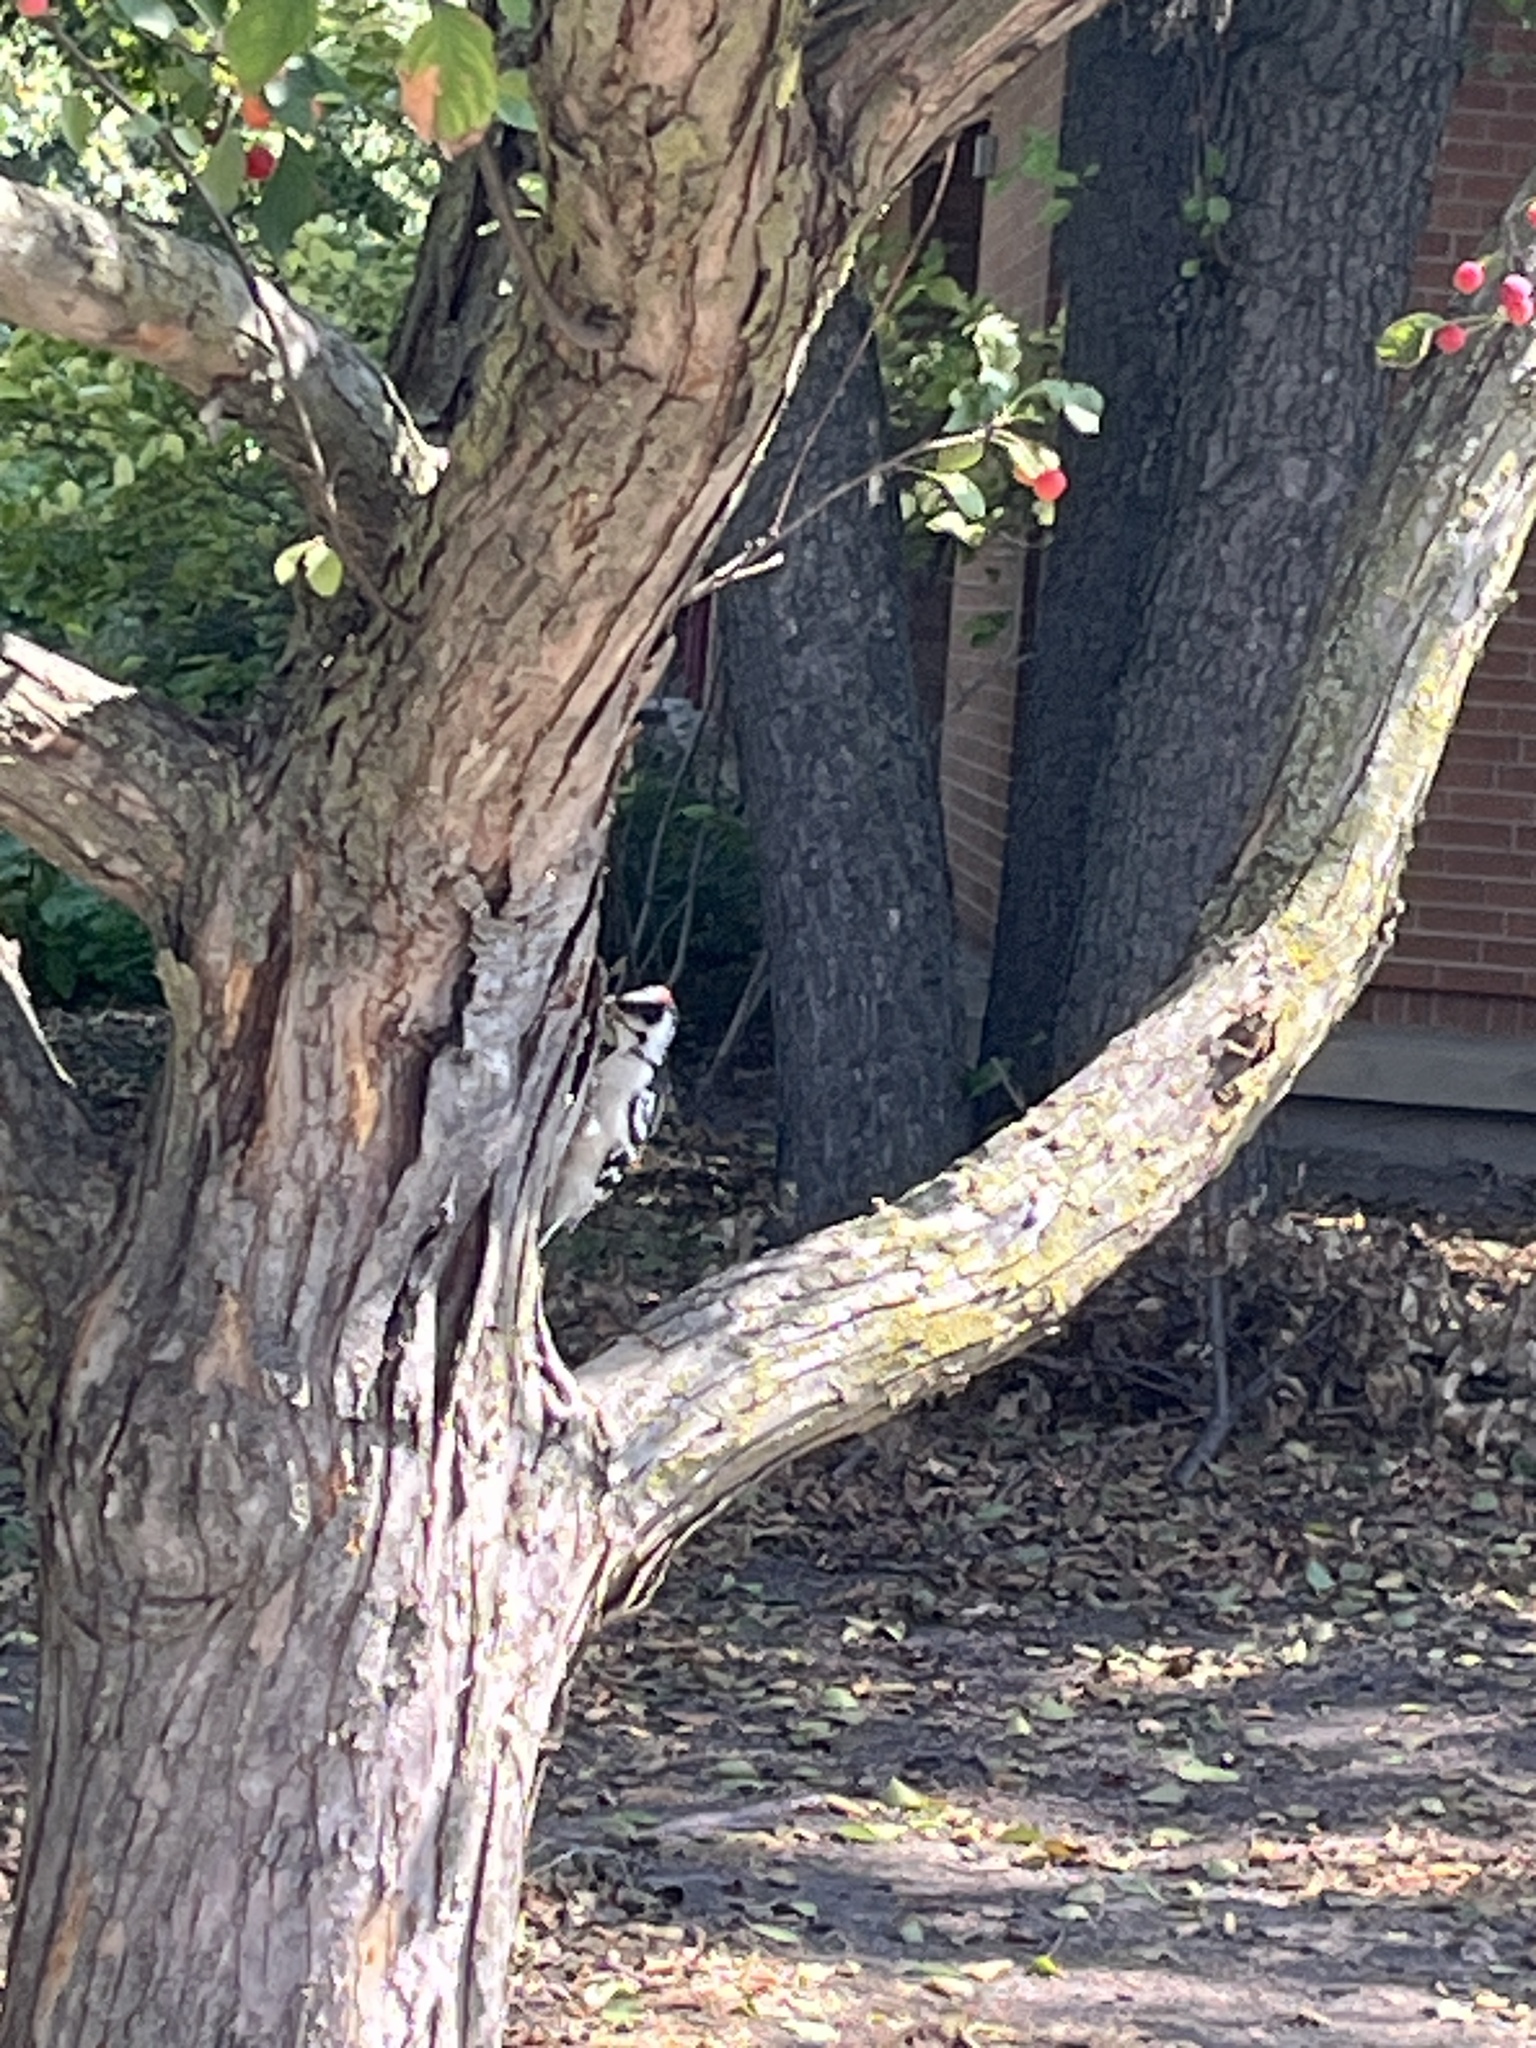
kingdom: Animalia
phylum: Chordata
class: Aves
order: Piciformes
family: Picidae
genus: Dryobates
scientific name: Dryobates pubescens
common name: Downy woodpecker
